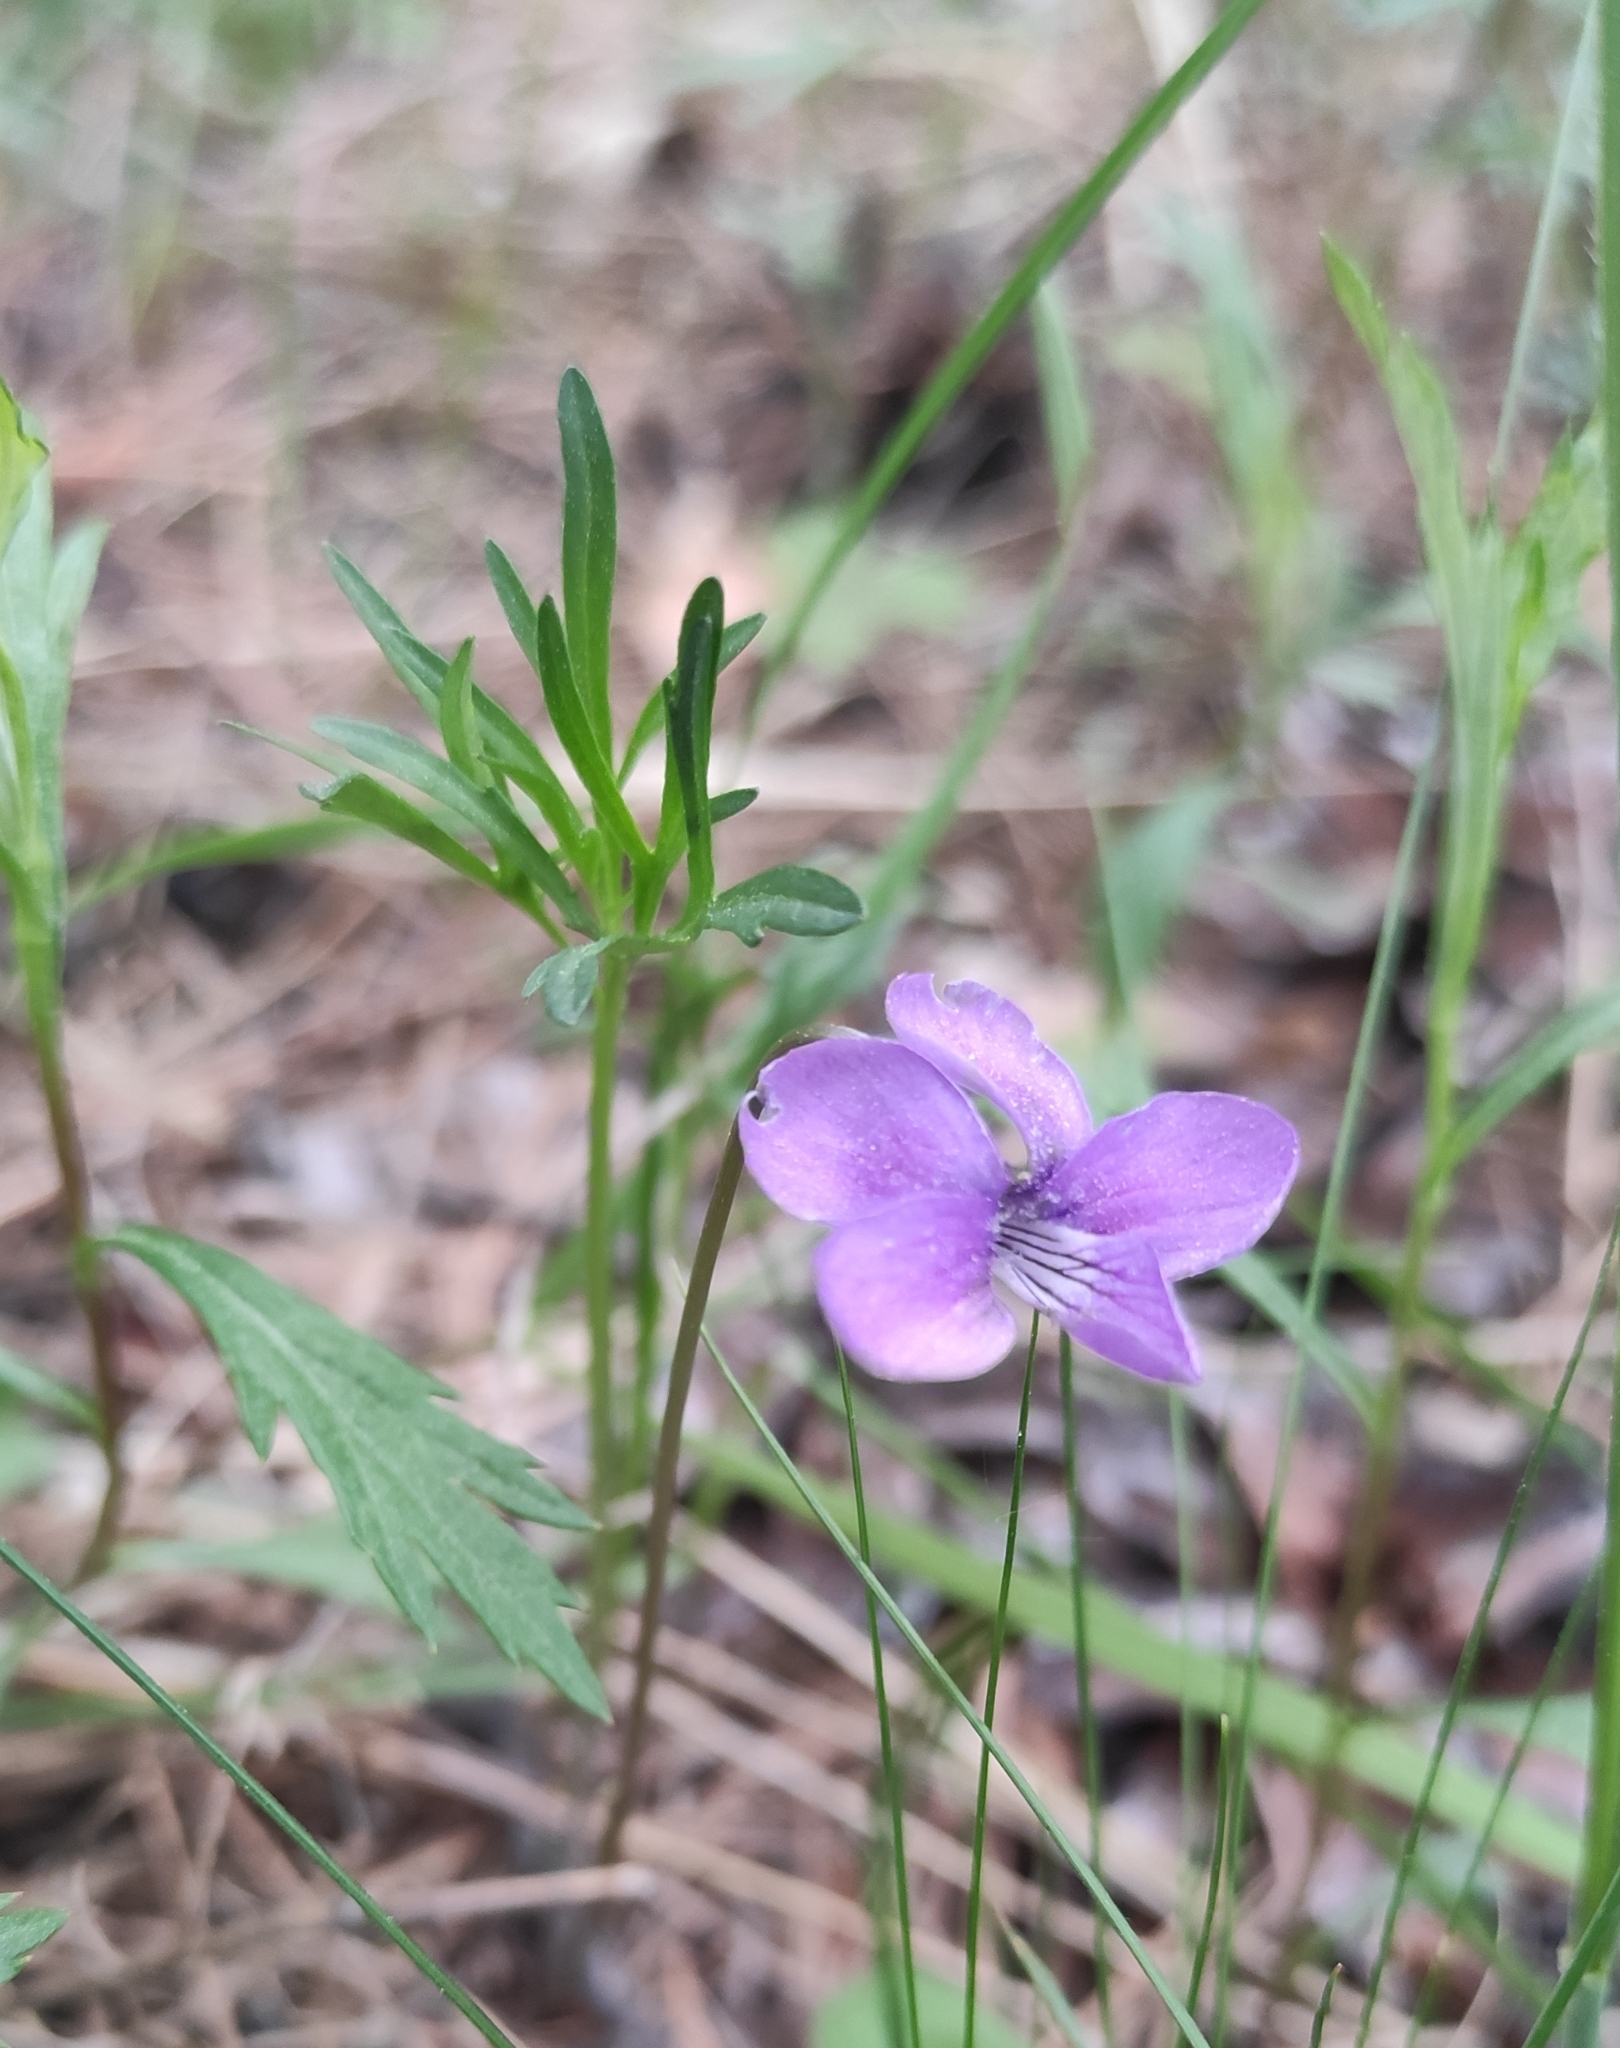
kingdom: Plantae
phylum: Tracheophyta
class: Magnoliopsida
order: Malpighiales
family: Violaceae
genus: Viola
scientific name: Viola multifida
